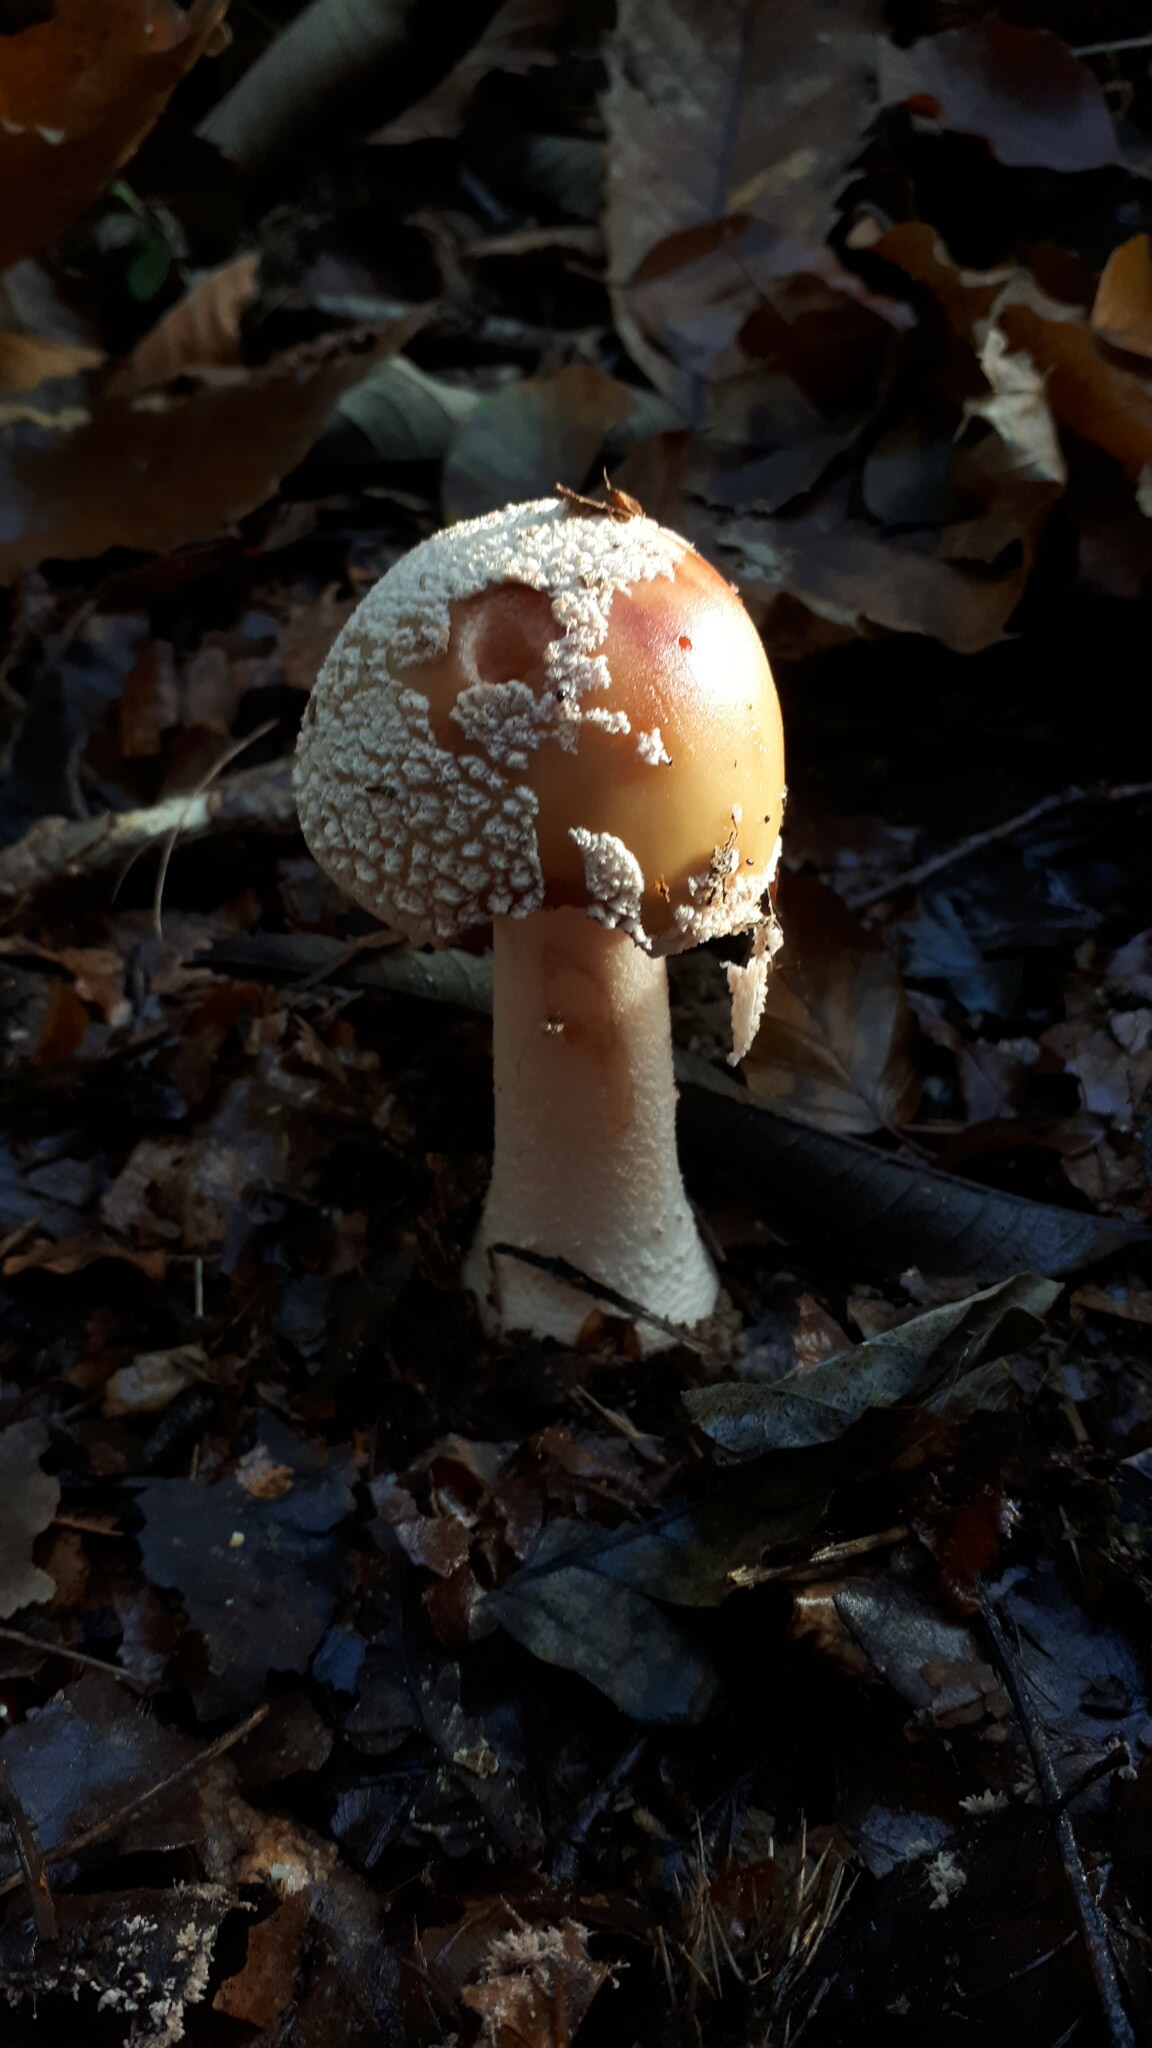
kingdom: Fungi
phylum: Basidiomycota
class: Agaricomycetes
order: Agaricales
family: Amanitaceae
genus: Amanita
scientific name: Amanita rubescens
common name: Blusher
